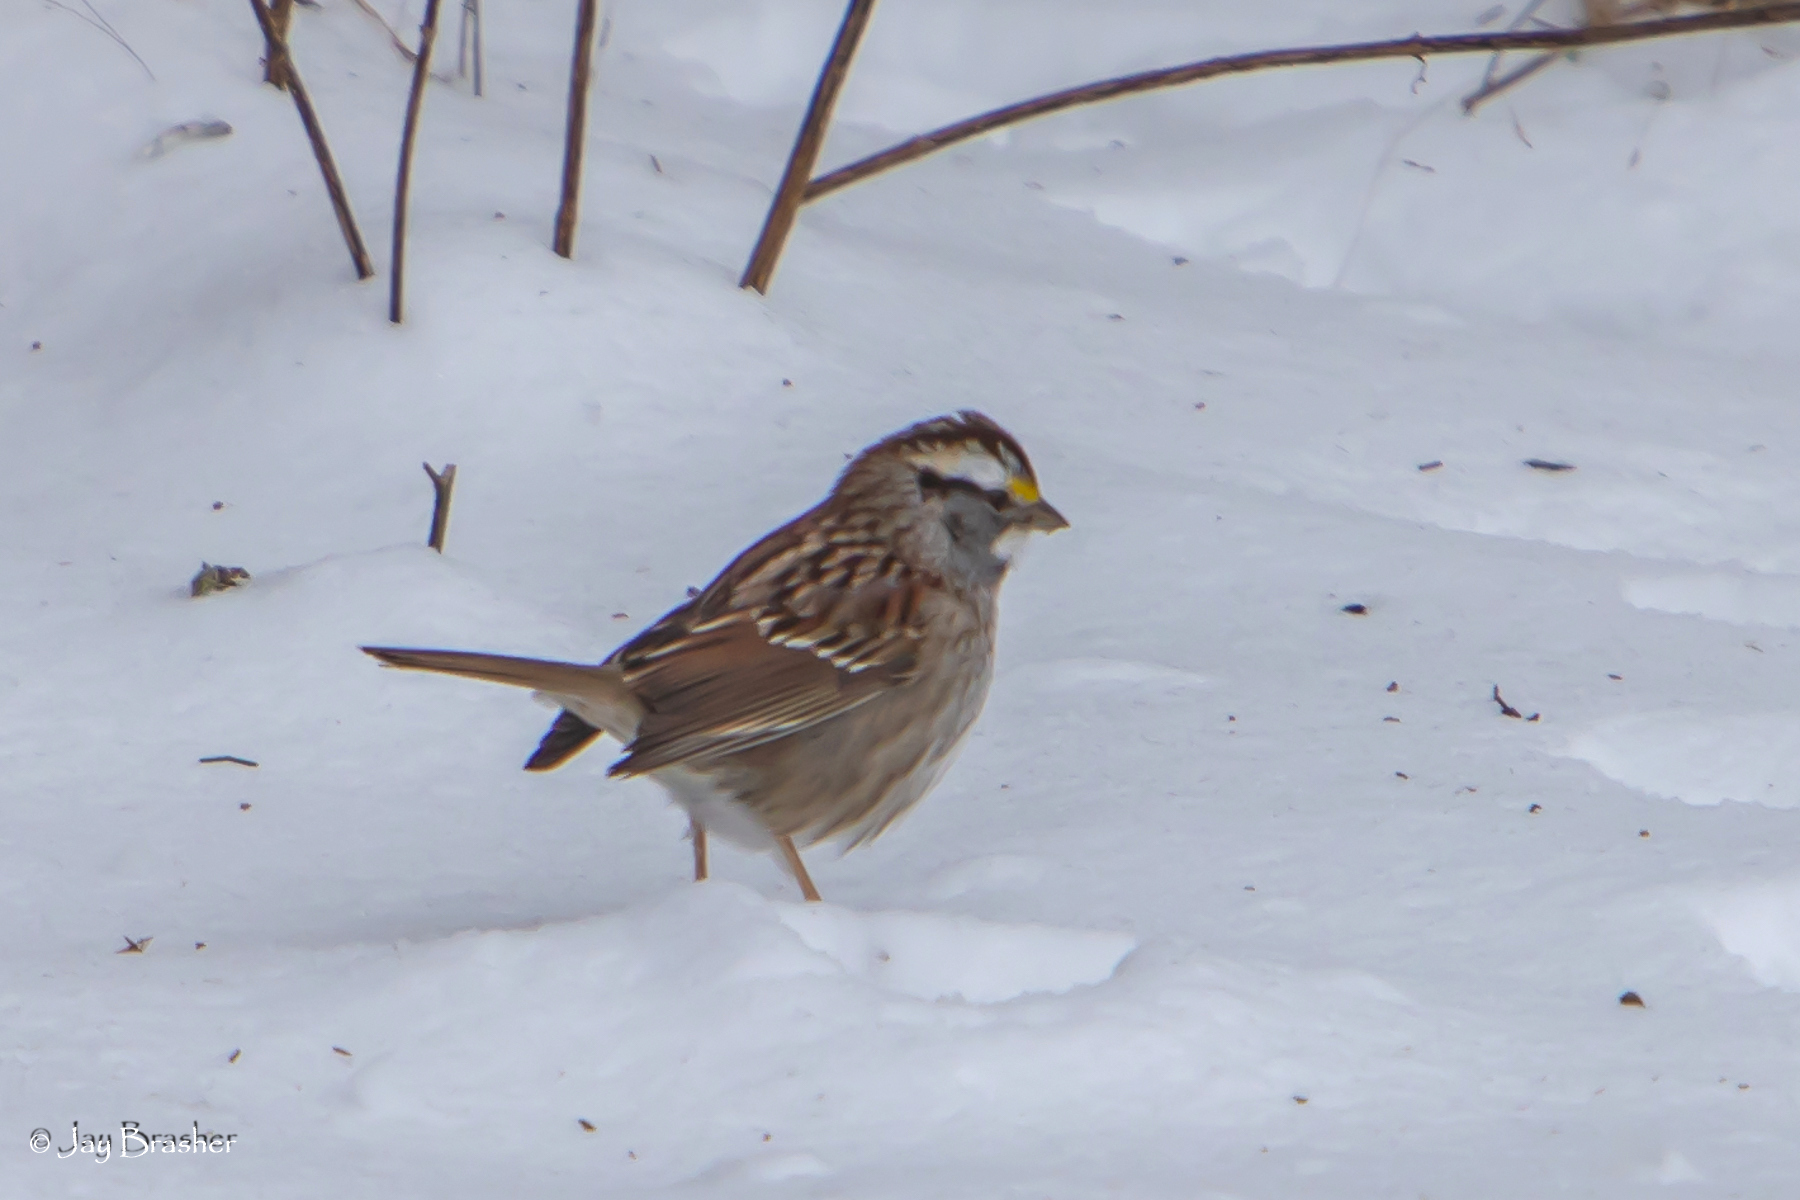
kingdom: Animalia
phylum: Chordata
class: Aves
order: Passeriformes
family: Passerellidae
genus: Zonotrichia
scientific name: Zonotrichia albicollis
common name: White-throated sparrow
